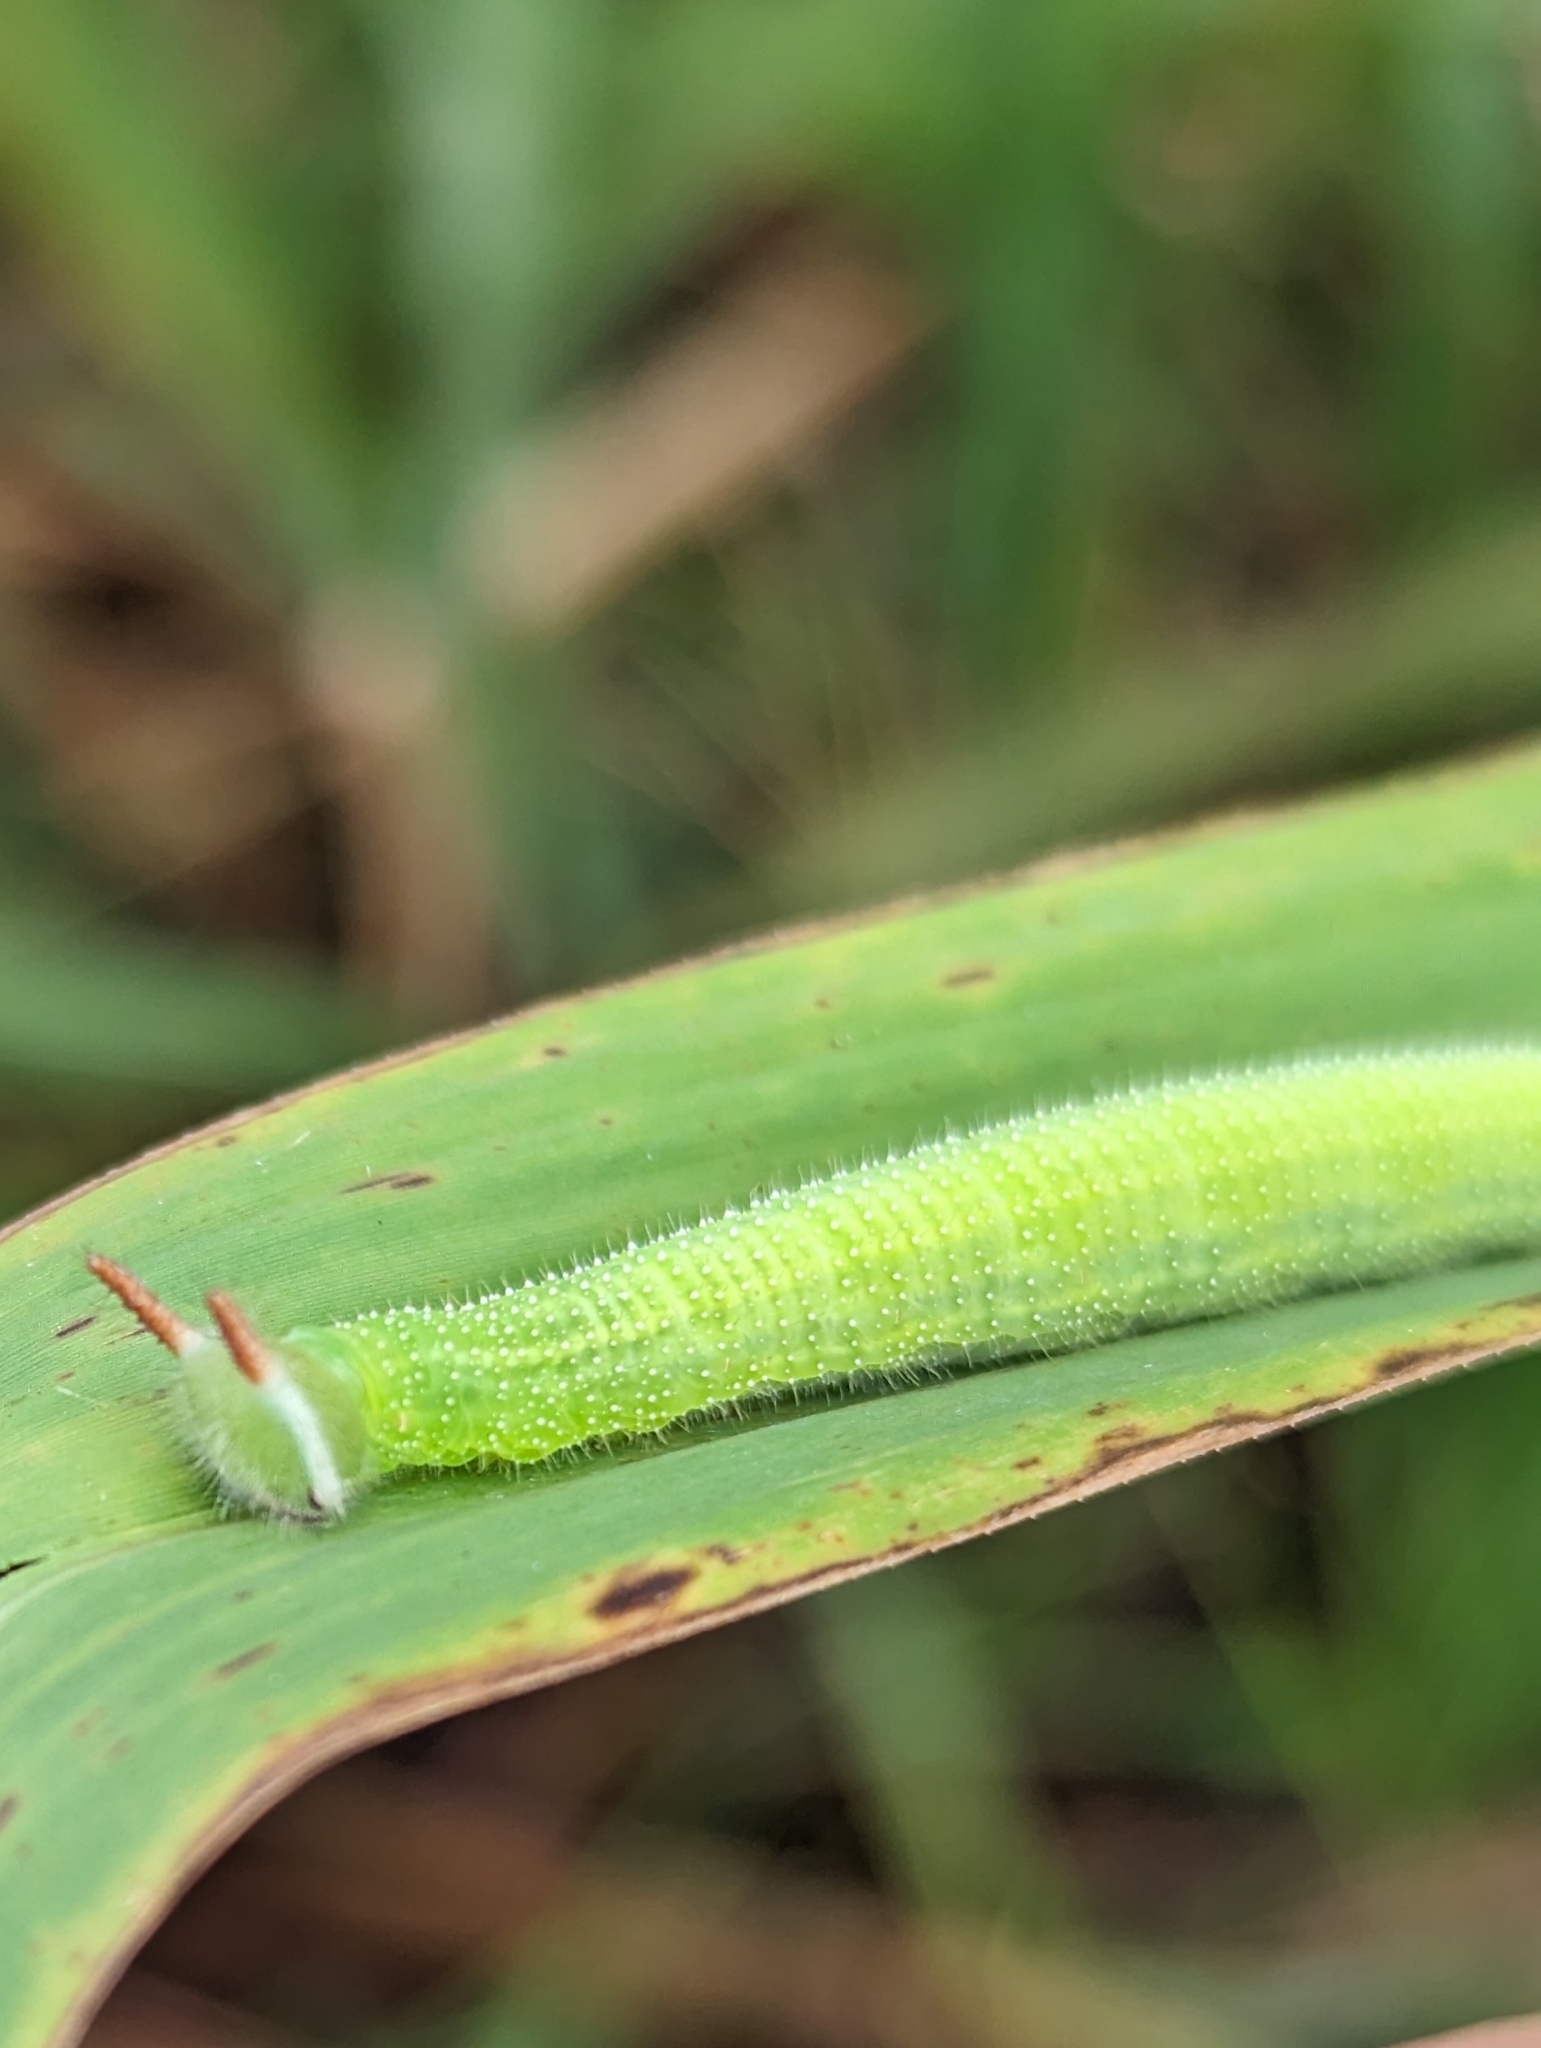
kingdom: Animalia
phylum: Arthropoda
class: Insecta
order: Lepidoptera
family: Nymphalidae
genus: Melanitis
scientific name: Melanitis leda
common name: Twilight brown
